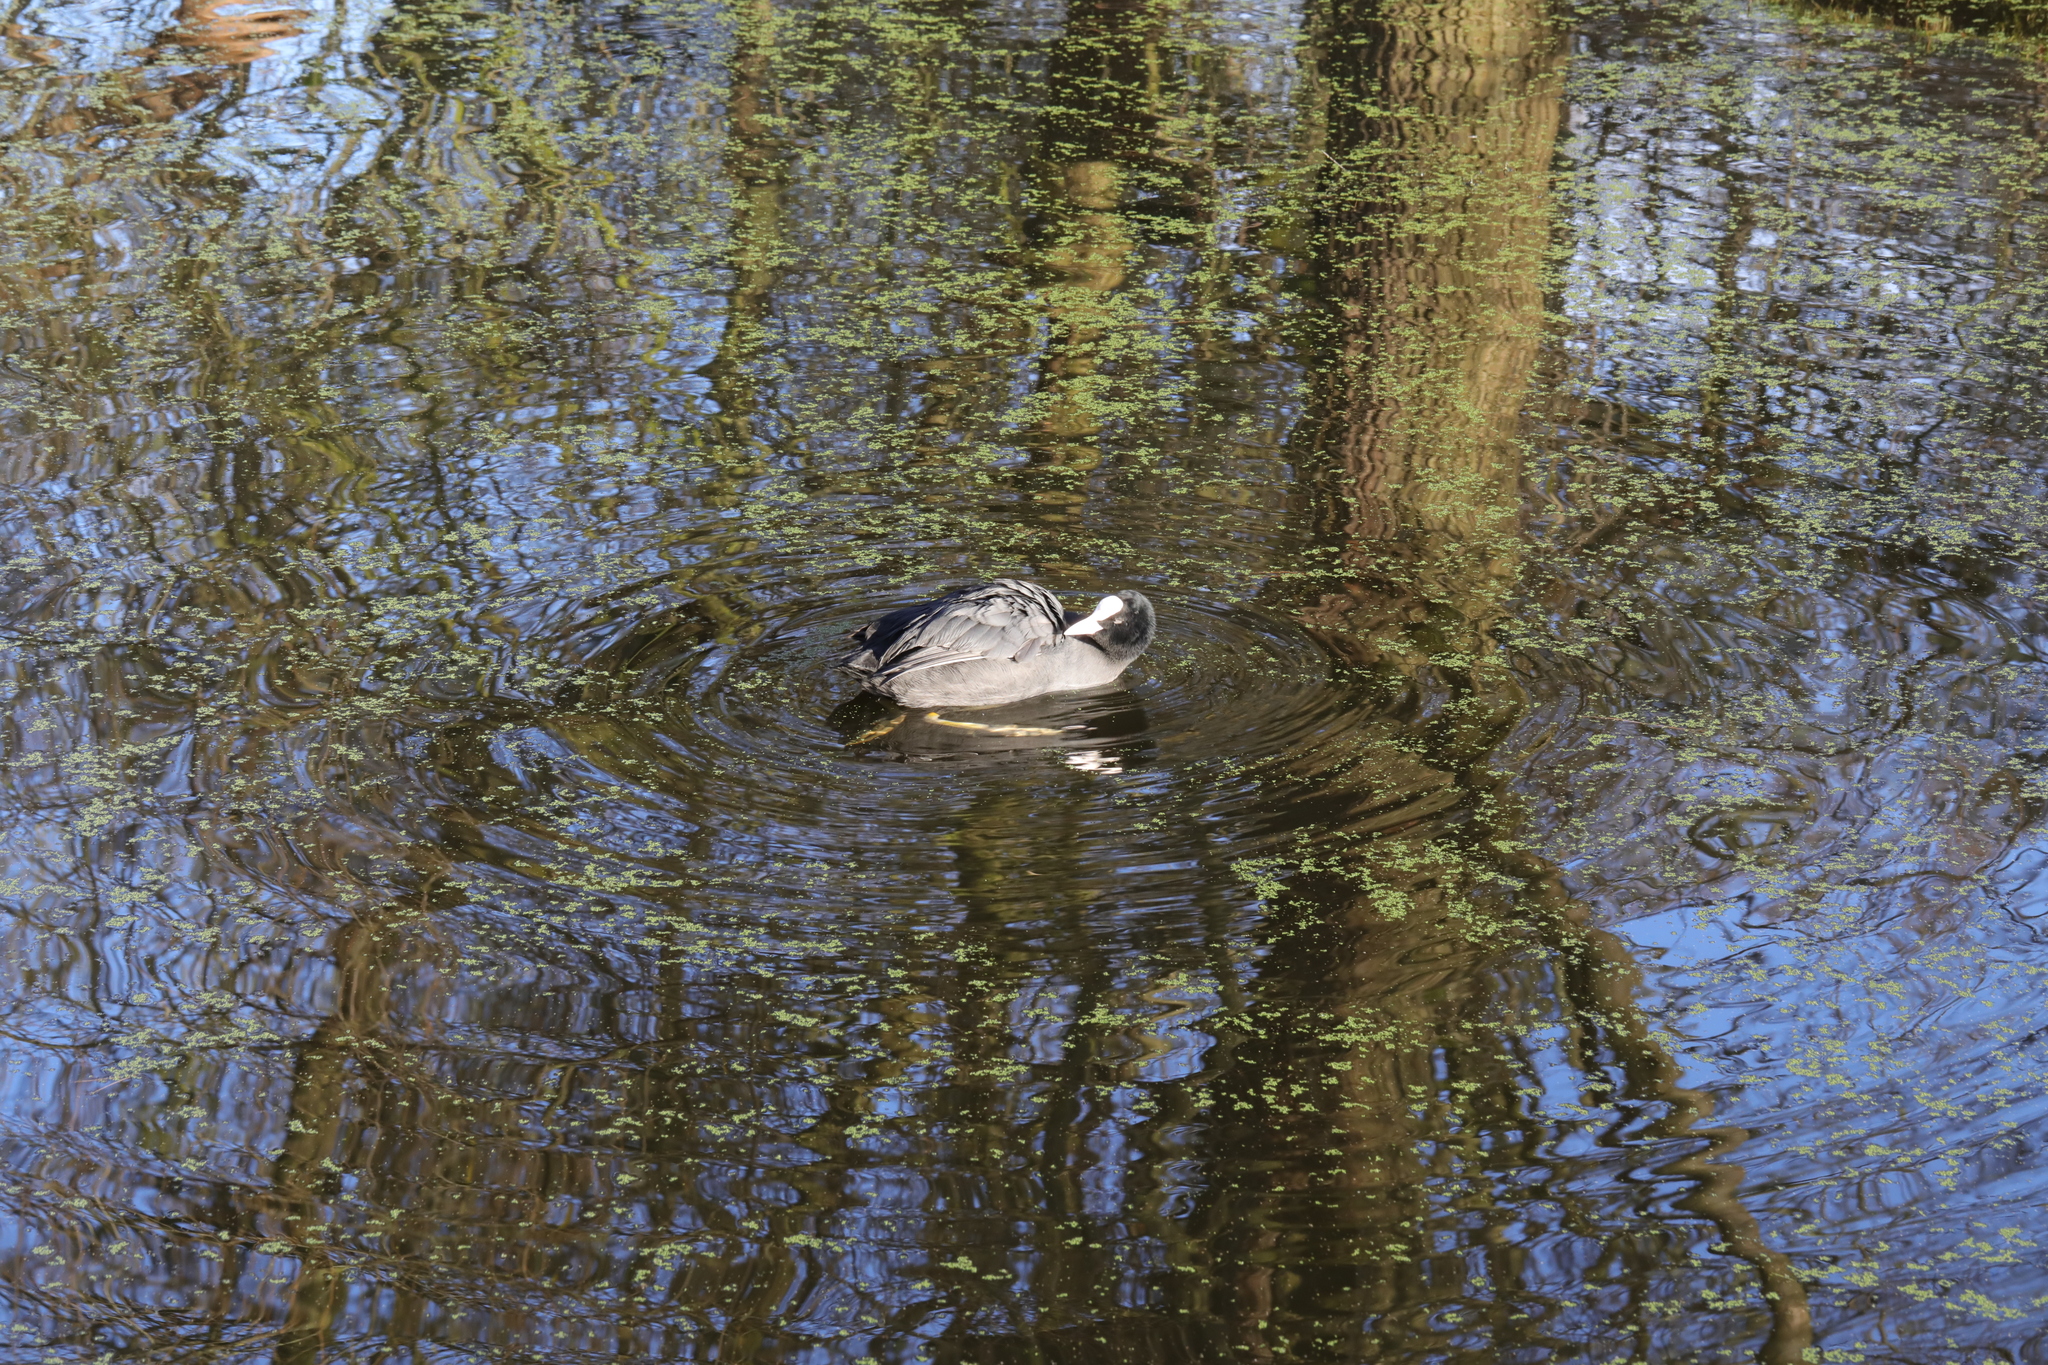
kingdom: Animalia
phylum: Chordata
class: Aves
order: Gruiformes
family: Rallidae
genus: Fulica
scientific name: Fulica atra
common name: Eurasian coot
